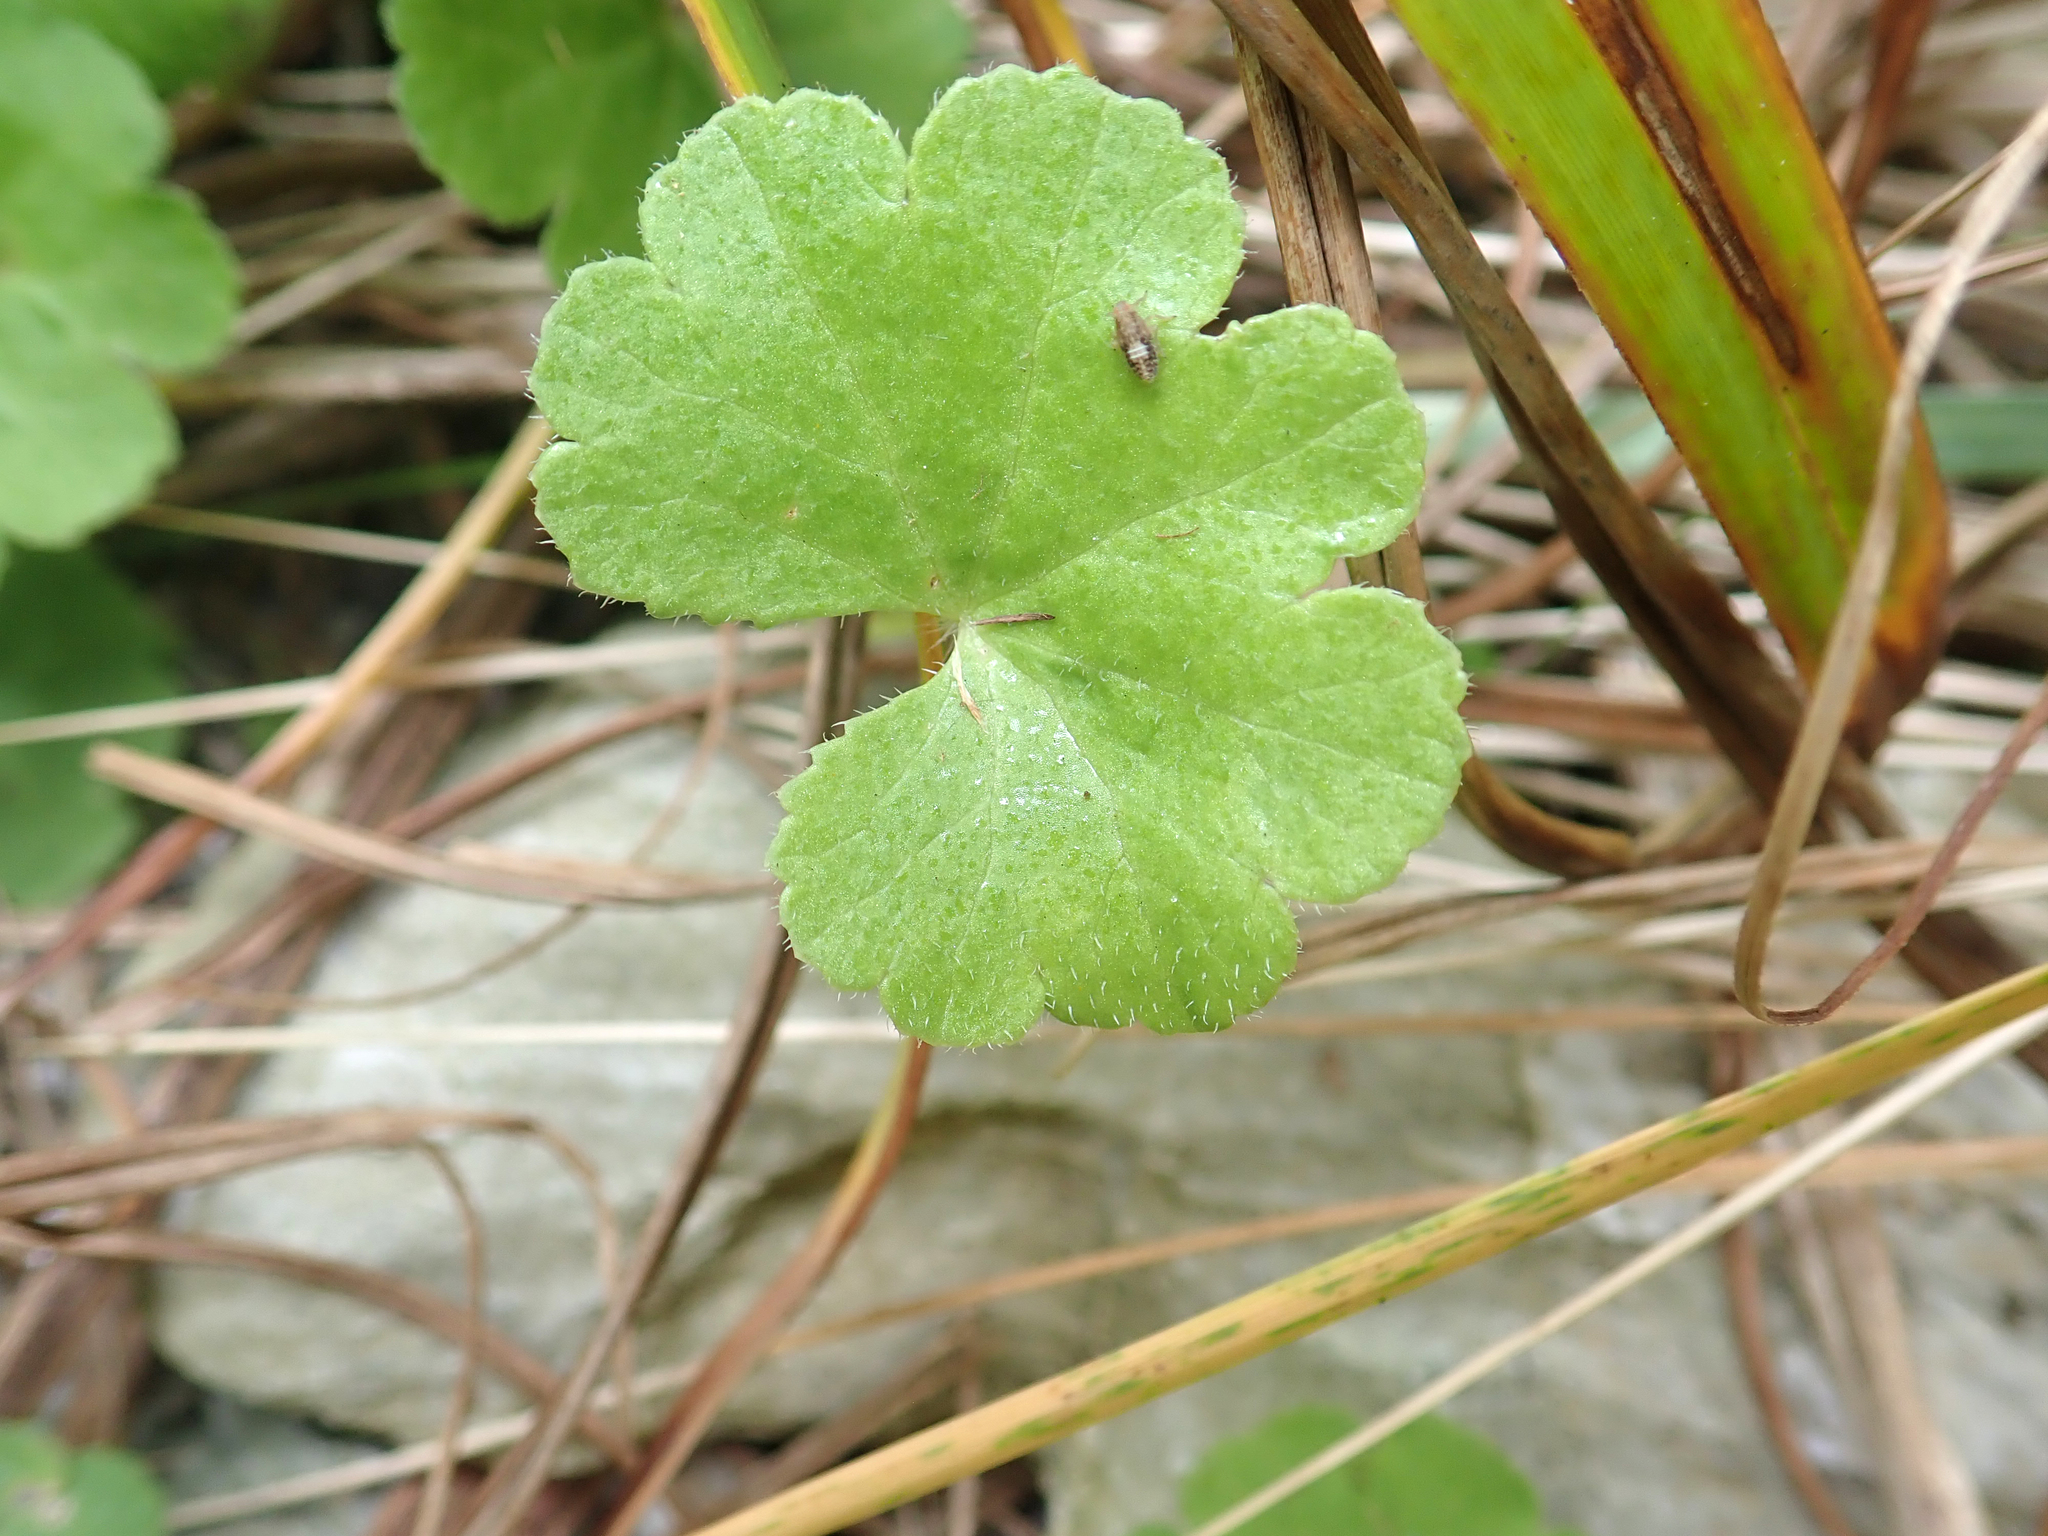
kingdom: Plantae
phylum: Tracheophyta
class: Magnoliopsida
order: Apiales
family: Araliaceae
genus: Hydrocotyle
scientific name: Hydrocotyle robusta
